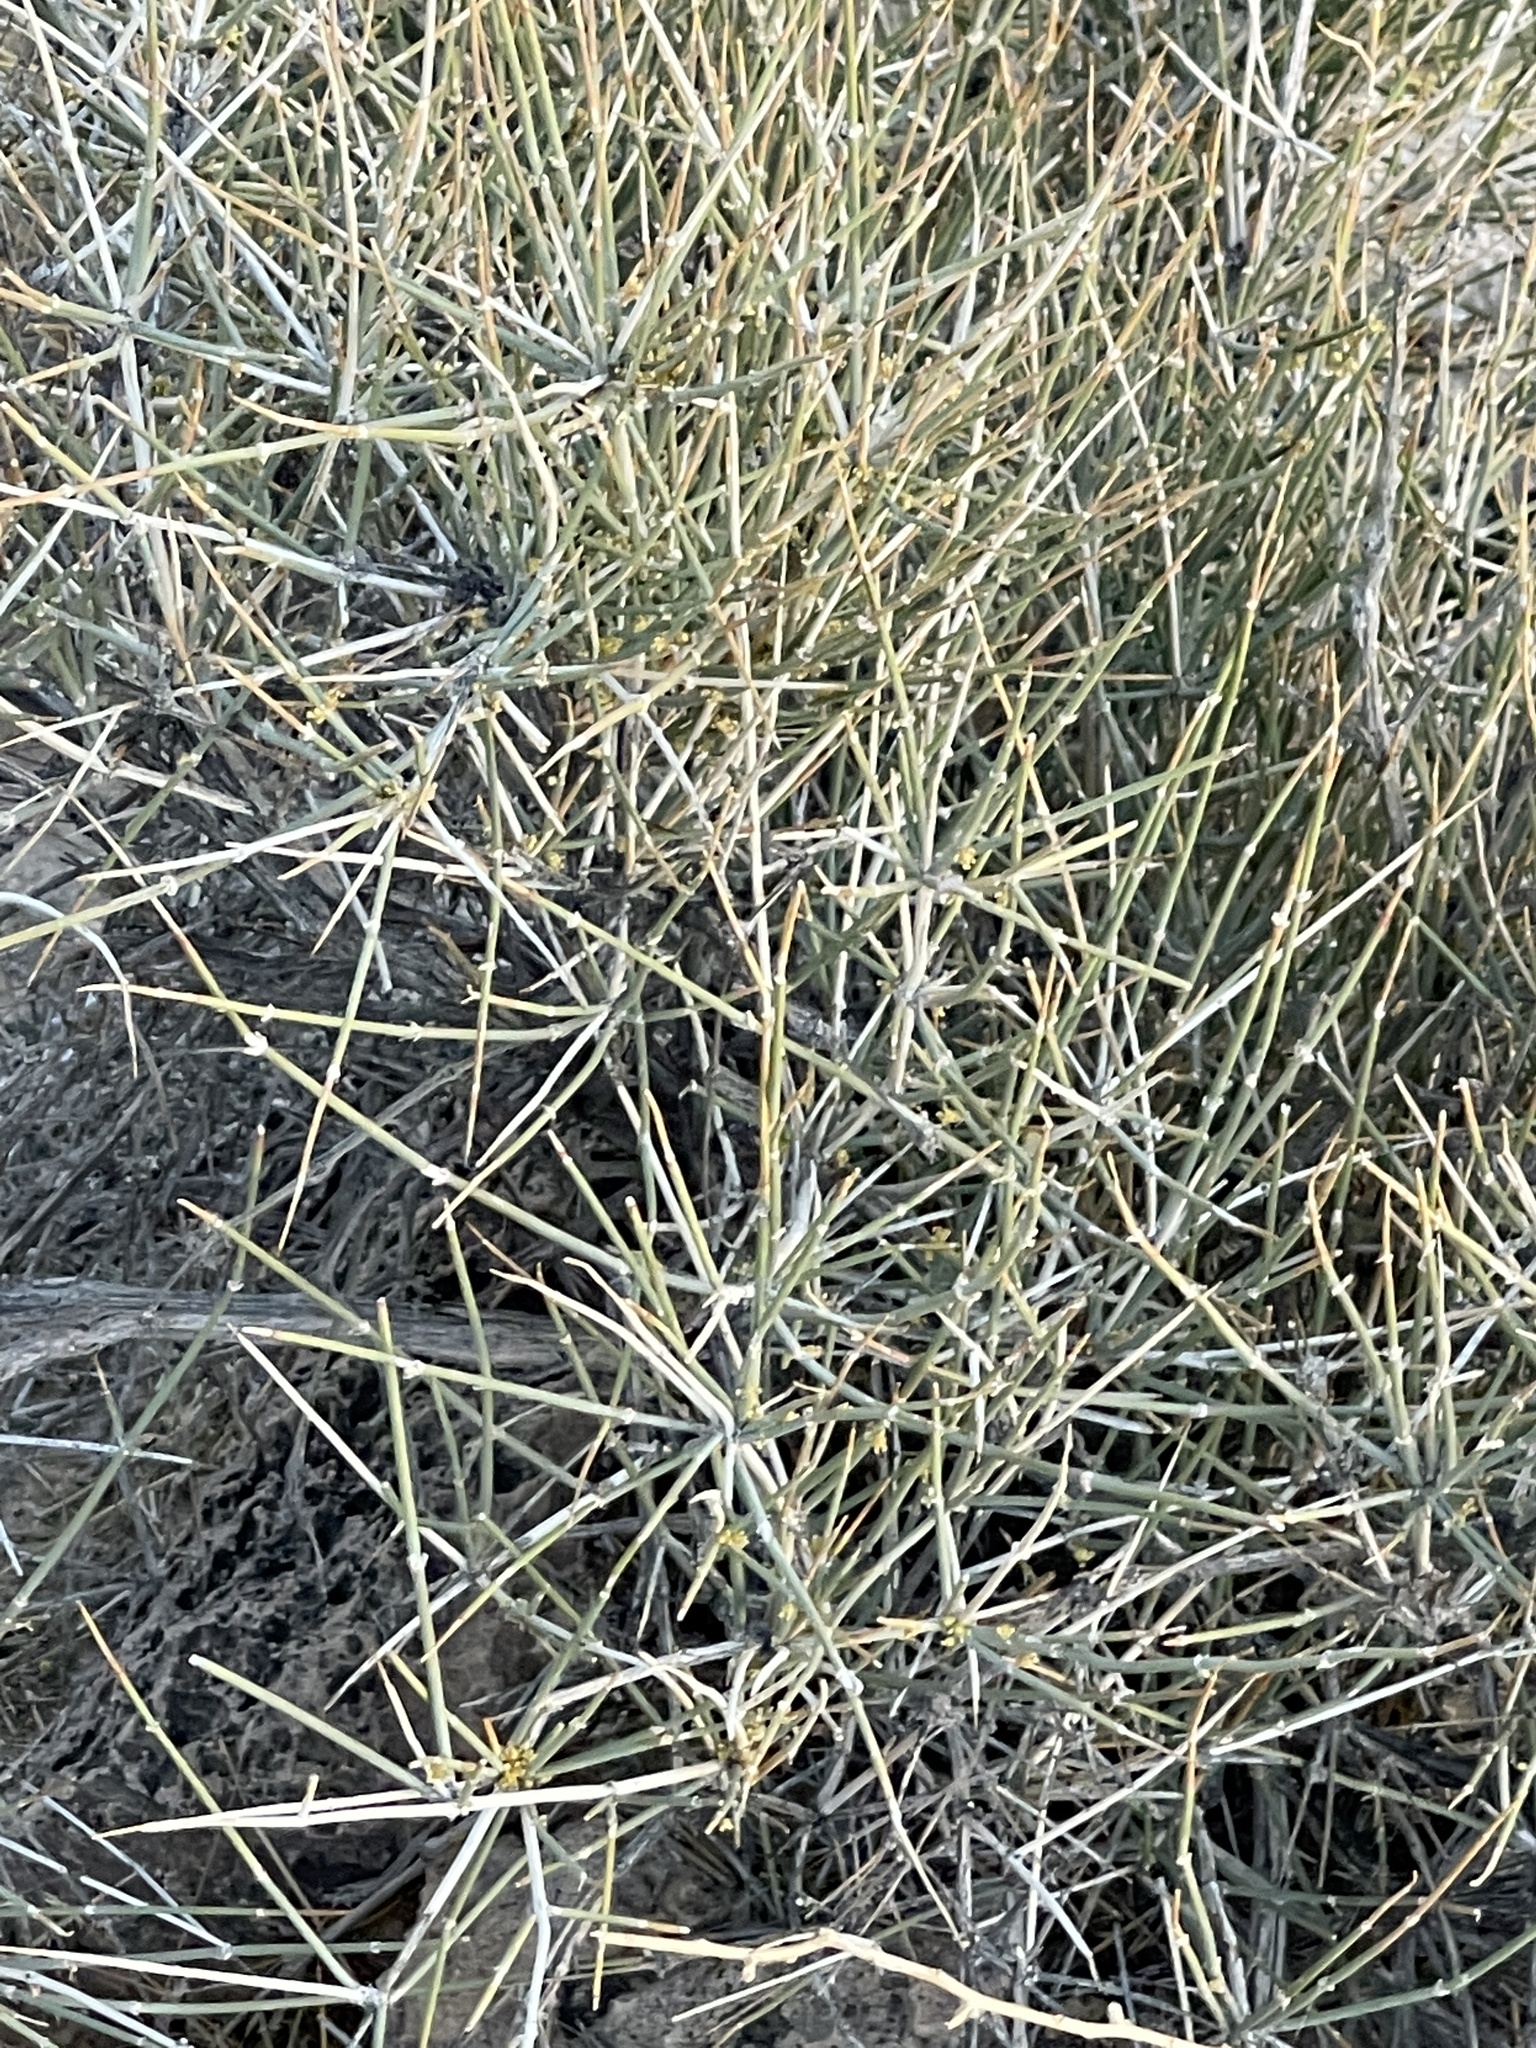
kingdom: Plantae
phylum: Tracheophyta
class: Gnetopsida
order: Ephedrales
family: Ephedraceae
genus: Ephedra
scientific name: Ephedra nevadensis
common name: Gray ephedra
